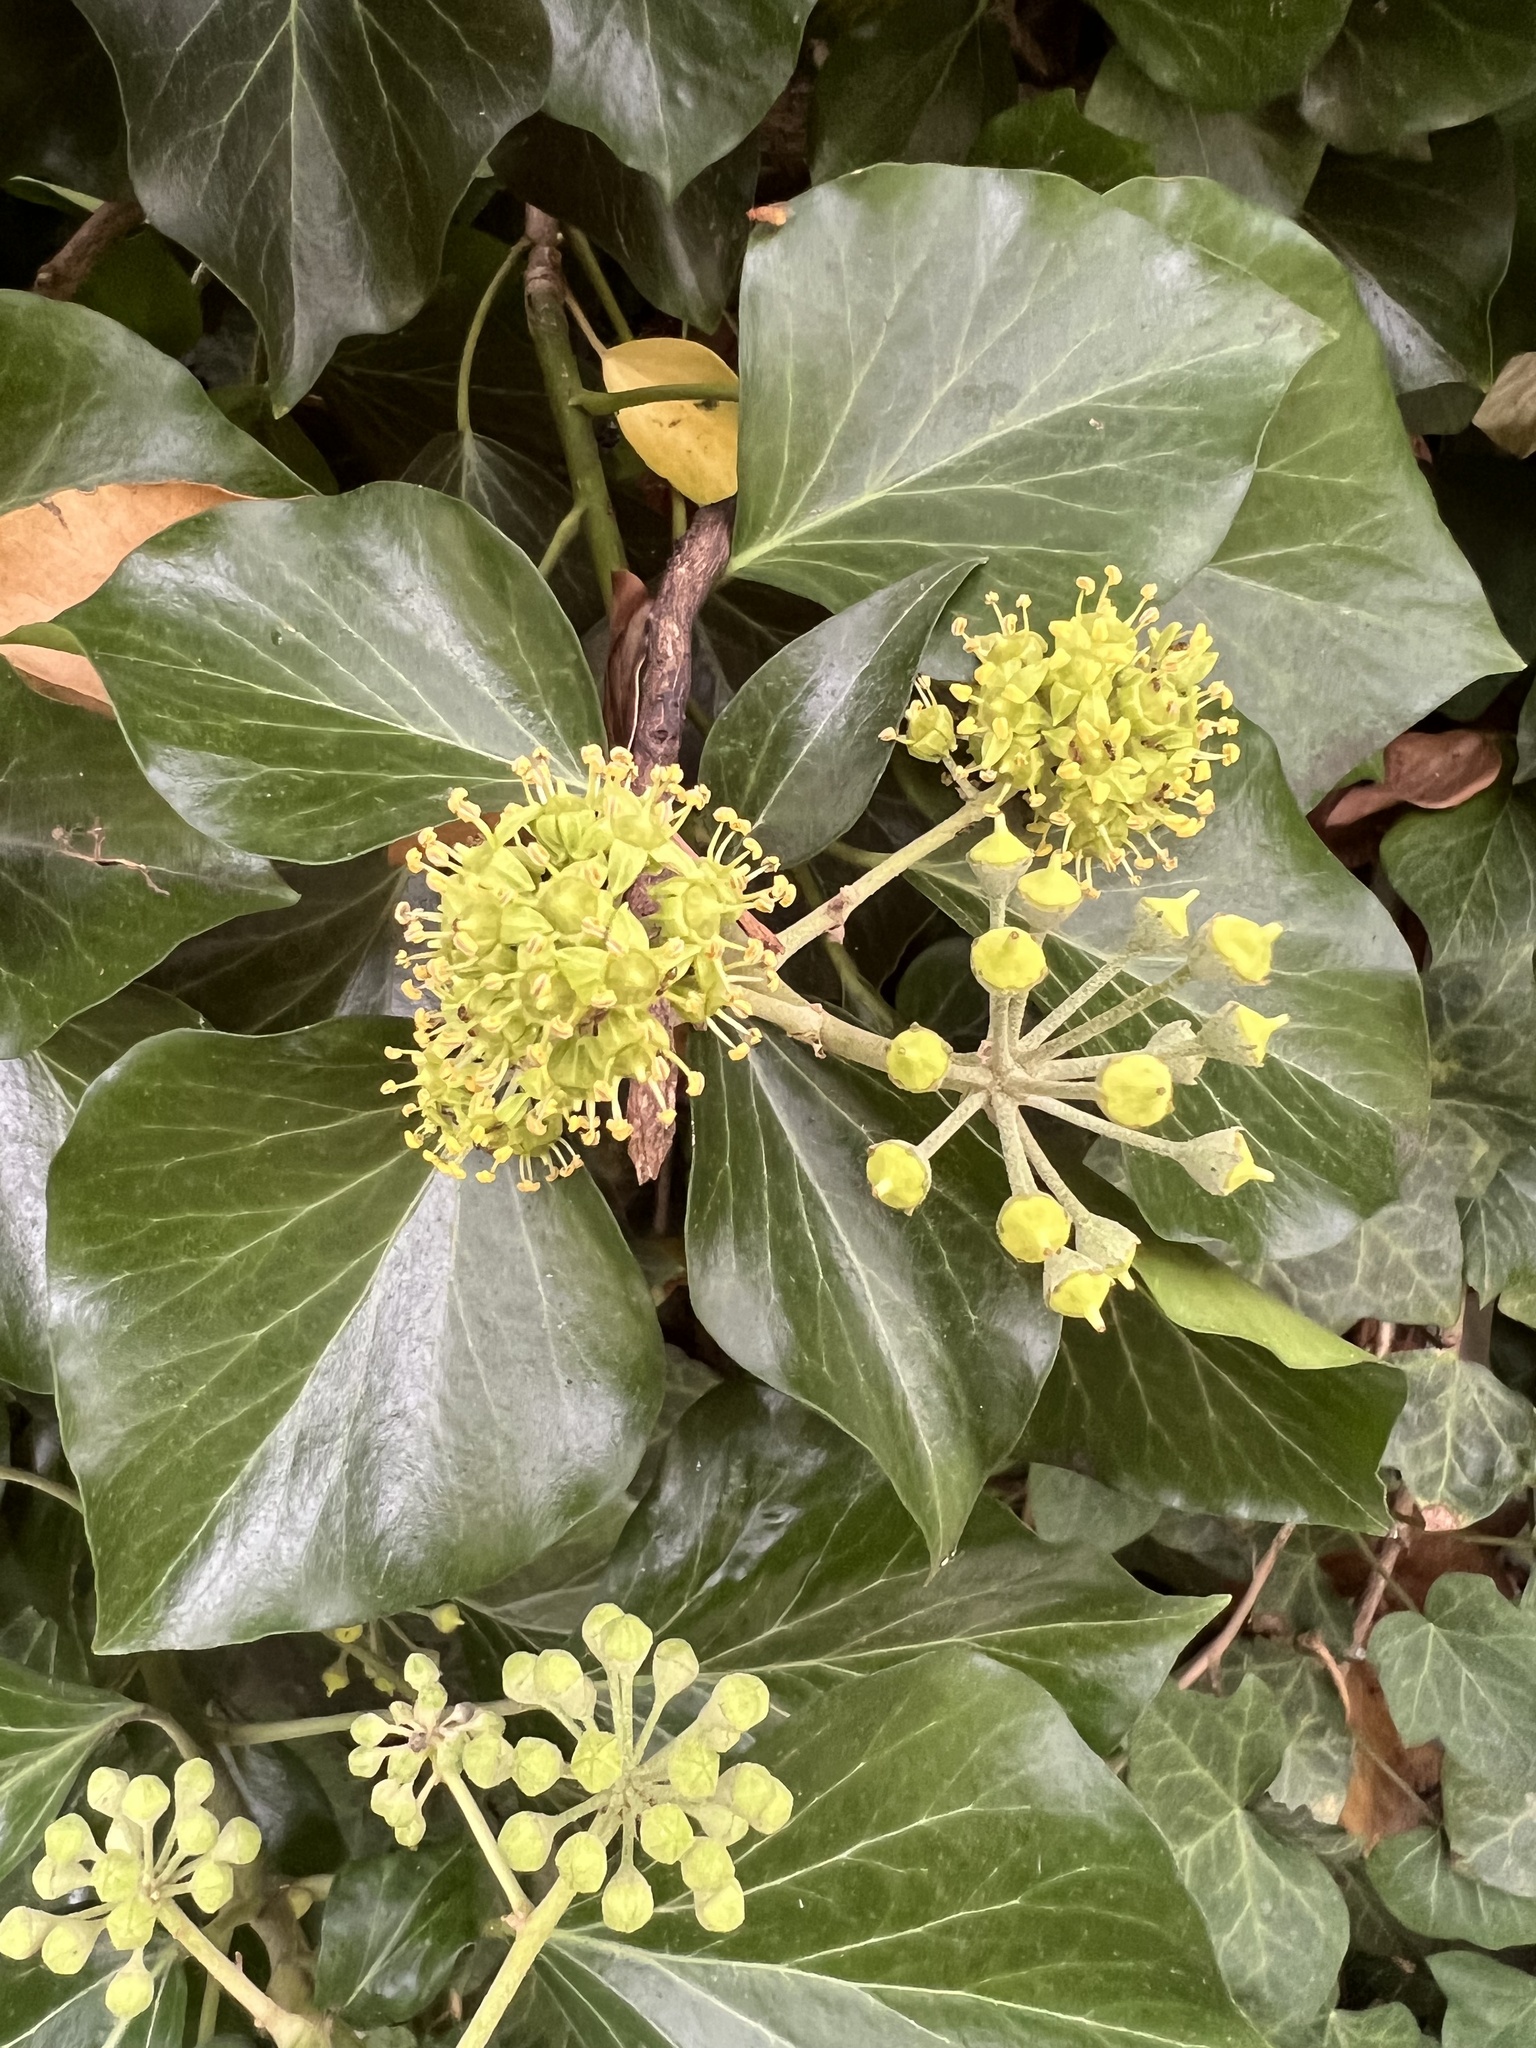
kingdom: Plantae
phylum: Tracheophyta
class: Magnoliopsida
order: Apiales
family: Araliaceae
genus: Hedera
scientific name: Hedera helix
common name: Ivy
